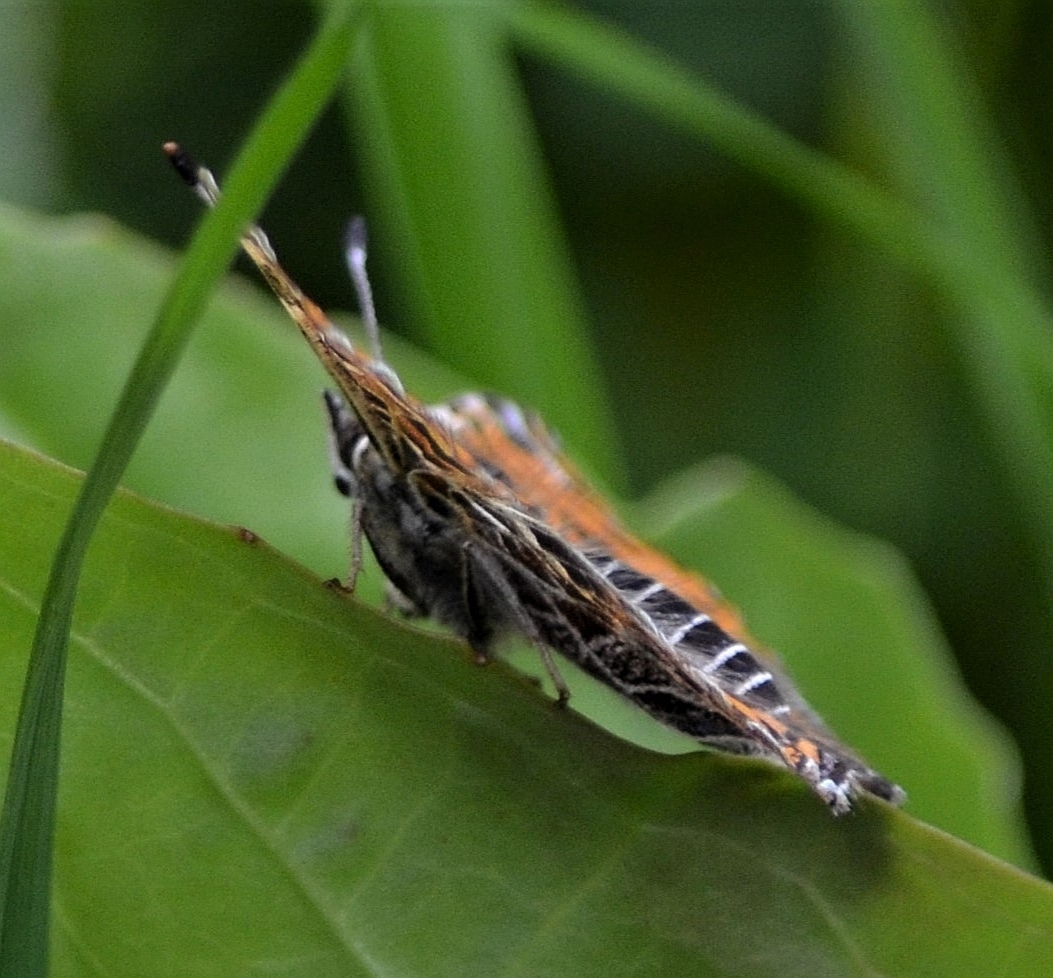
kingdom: Animalia
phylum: Arthropoda
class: Insecta
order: Lepidoptera
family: Nymphalidae
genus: Araschnia
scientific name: Araschnia levana
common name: Map butterfly
